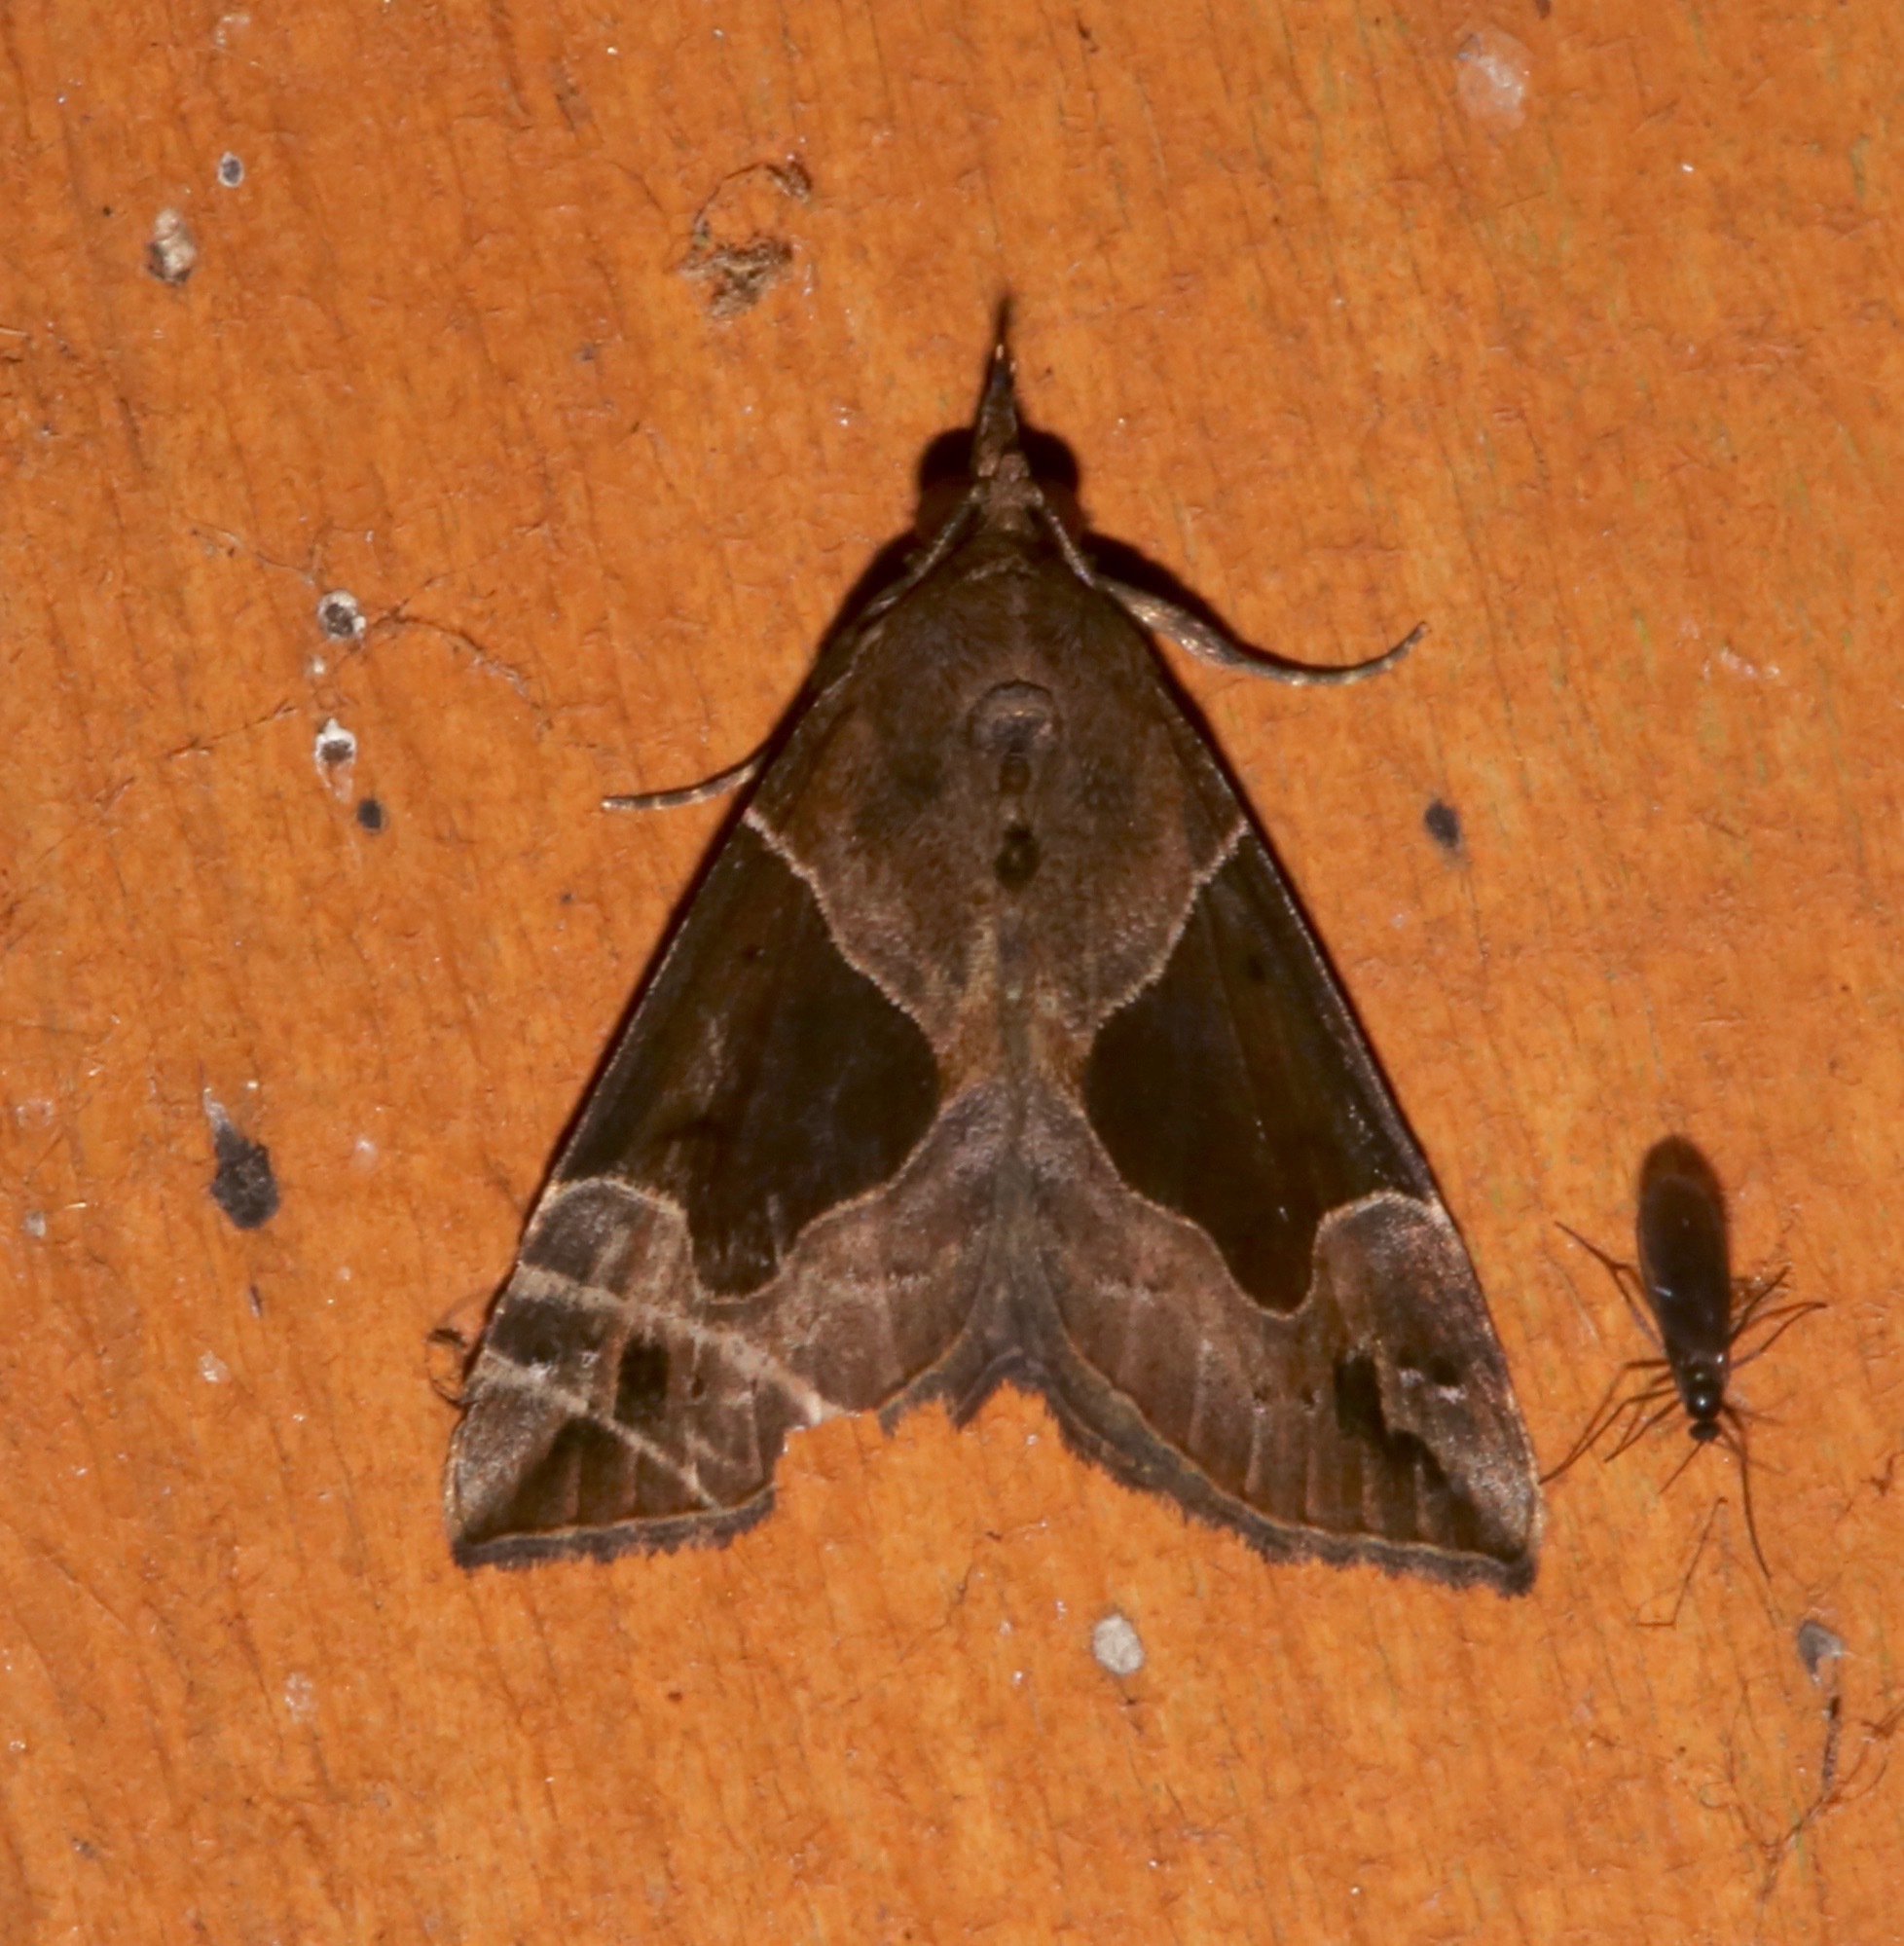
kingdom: Animalia
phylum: Arthropoda
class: Insecta
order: Lepidoptera
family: Erebidae
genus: Hypena
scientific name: Hypena manalis
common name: Flowing-line bomolocha moth
